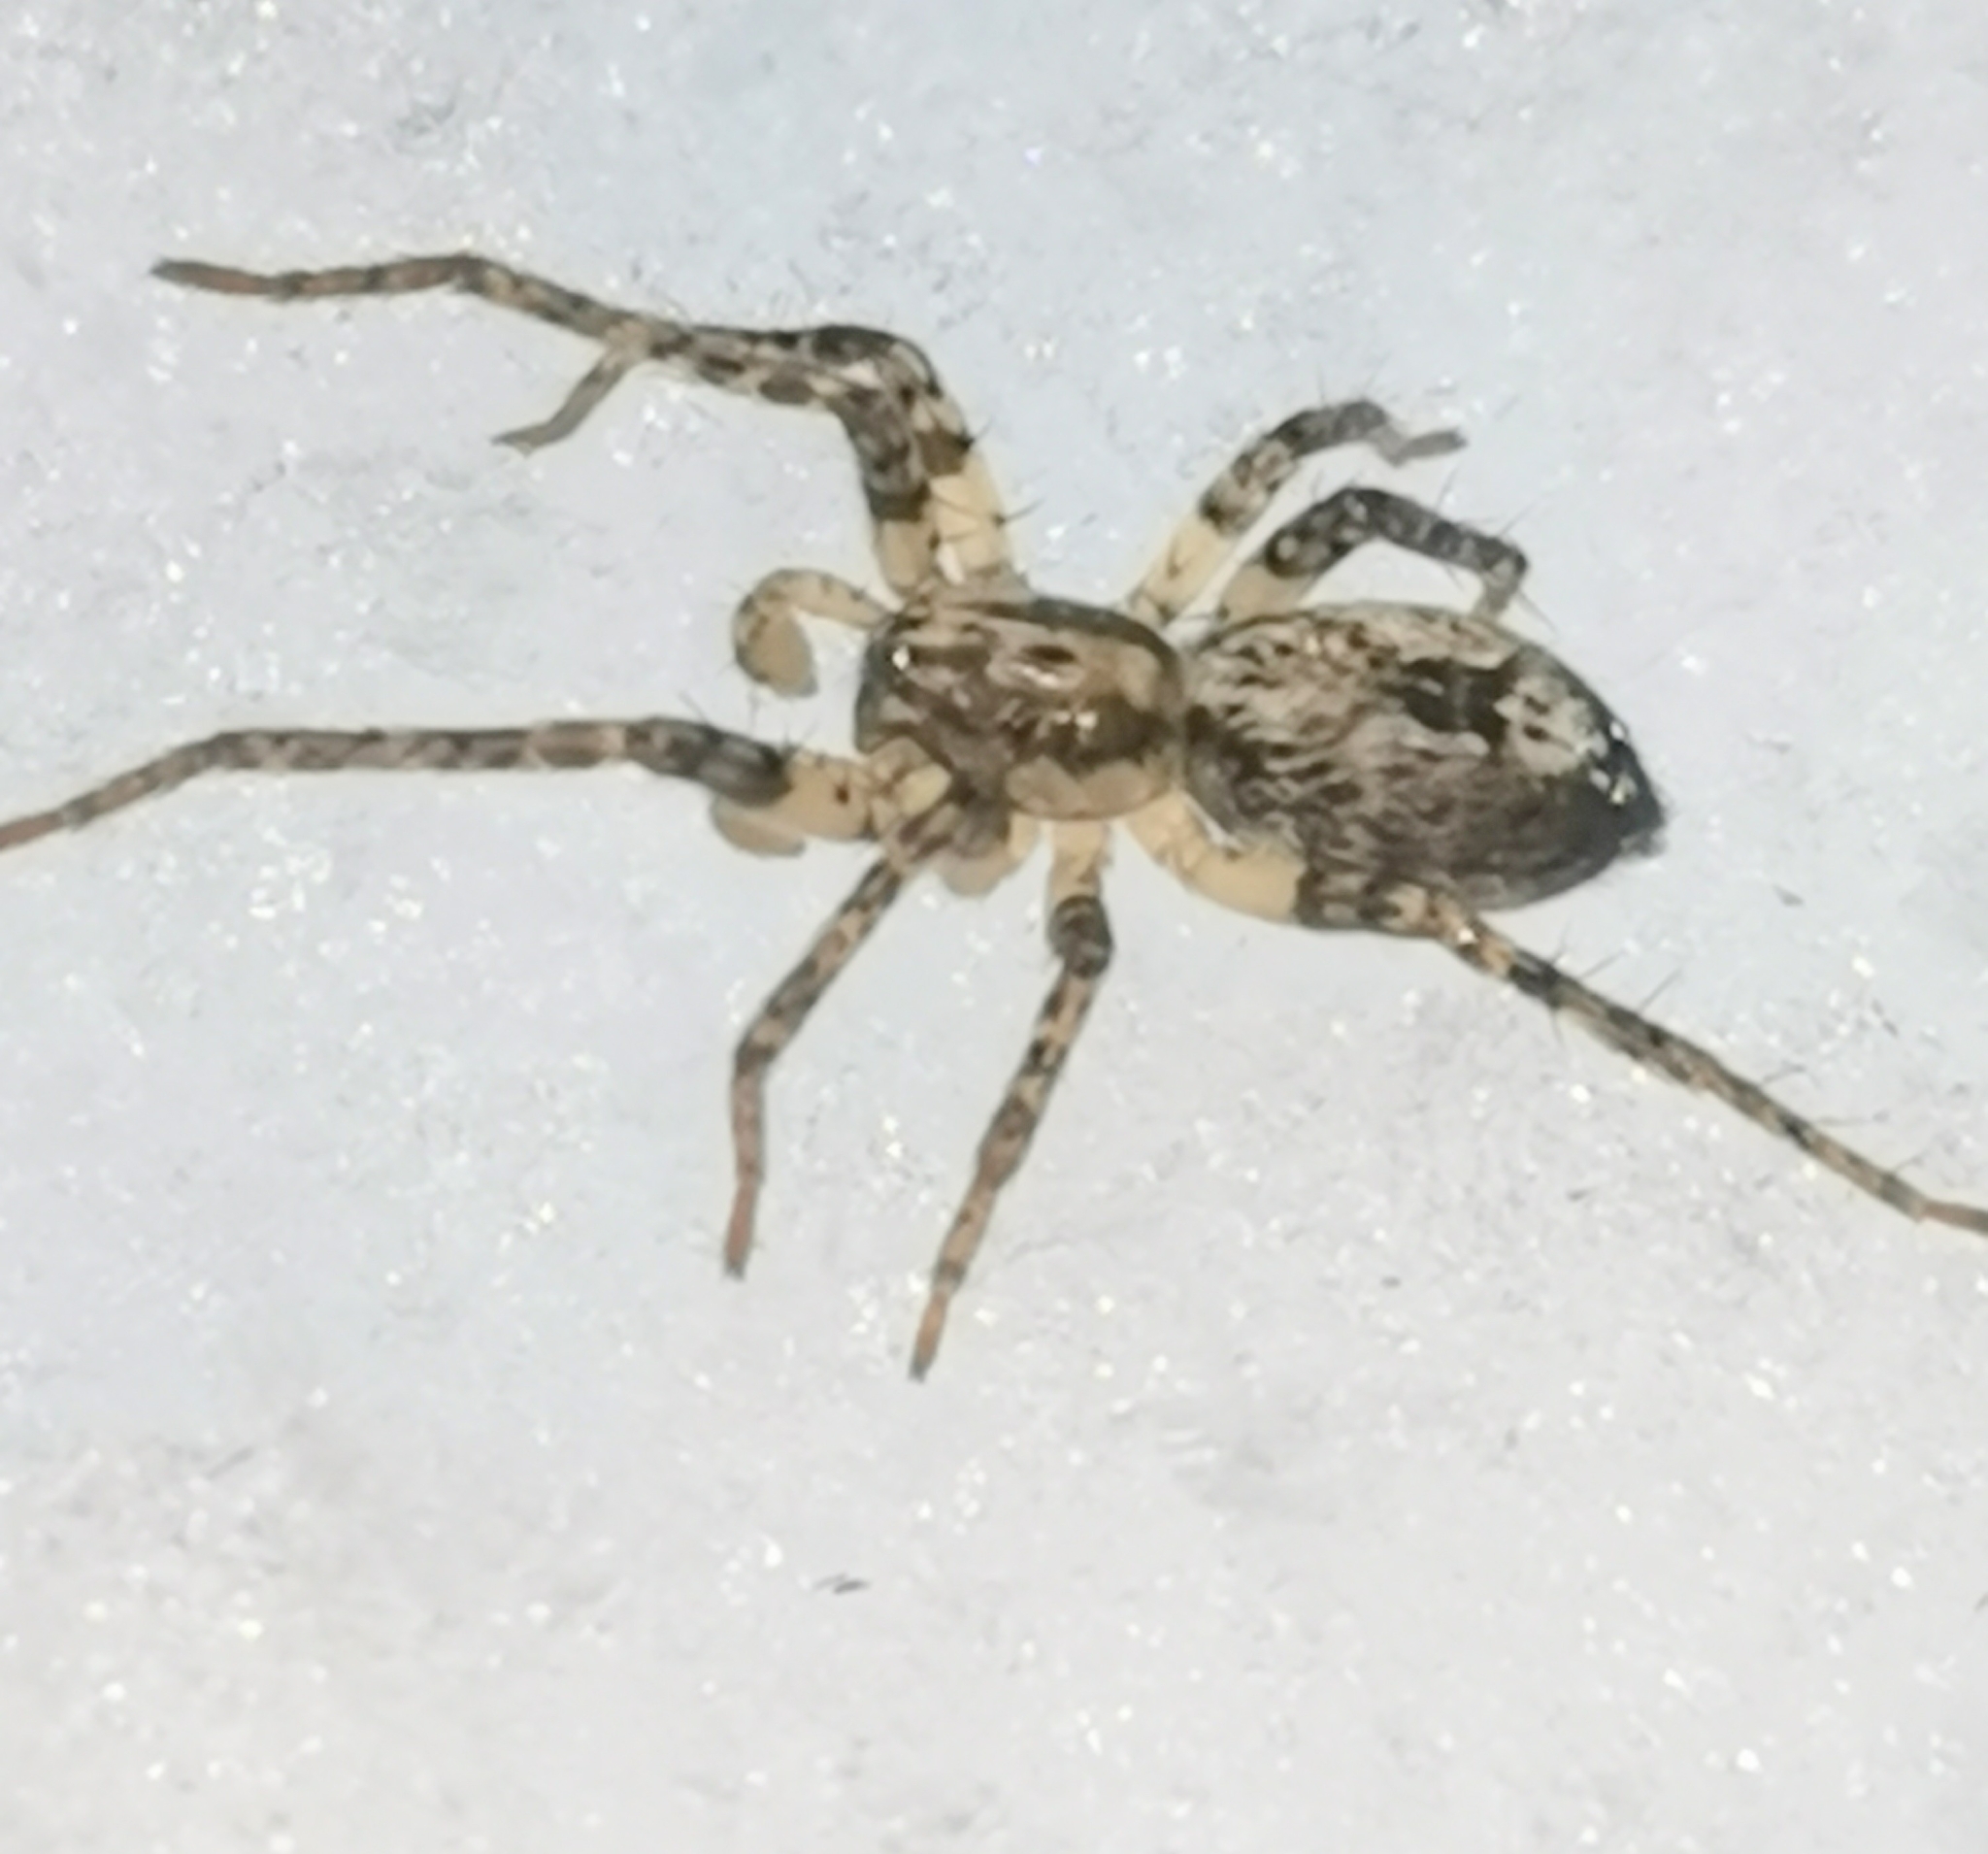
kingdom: Animalia
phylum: Arthropoda
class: Arachnida
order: Araneae
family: Anyphaenidae
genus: Anyphaena
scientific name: Anyphaena accentuata
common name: Buzzing spider
